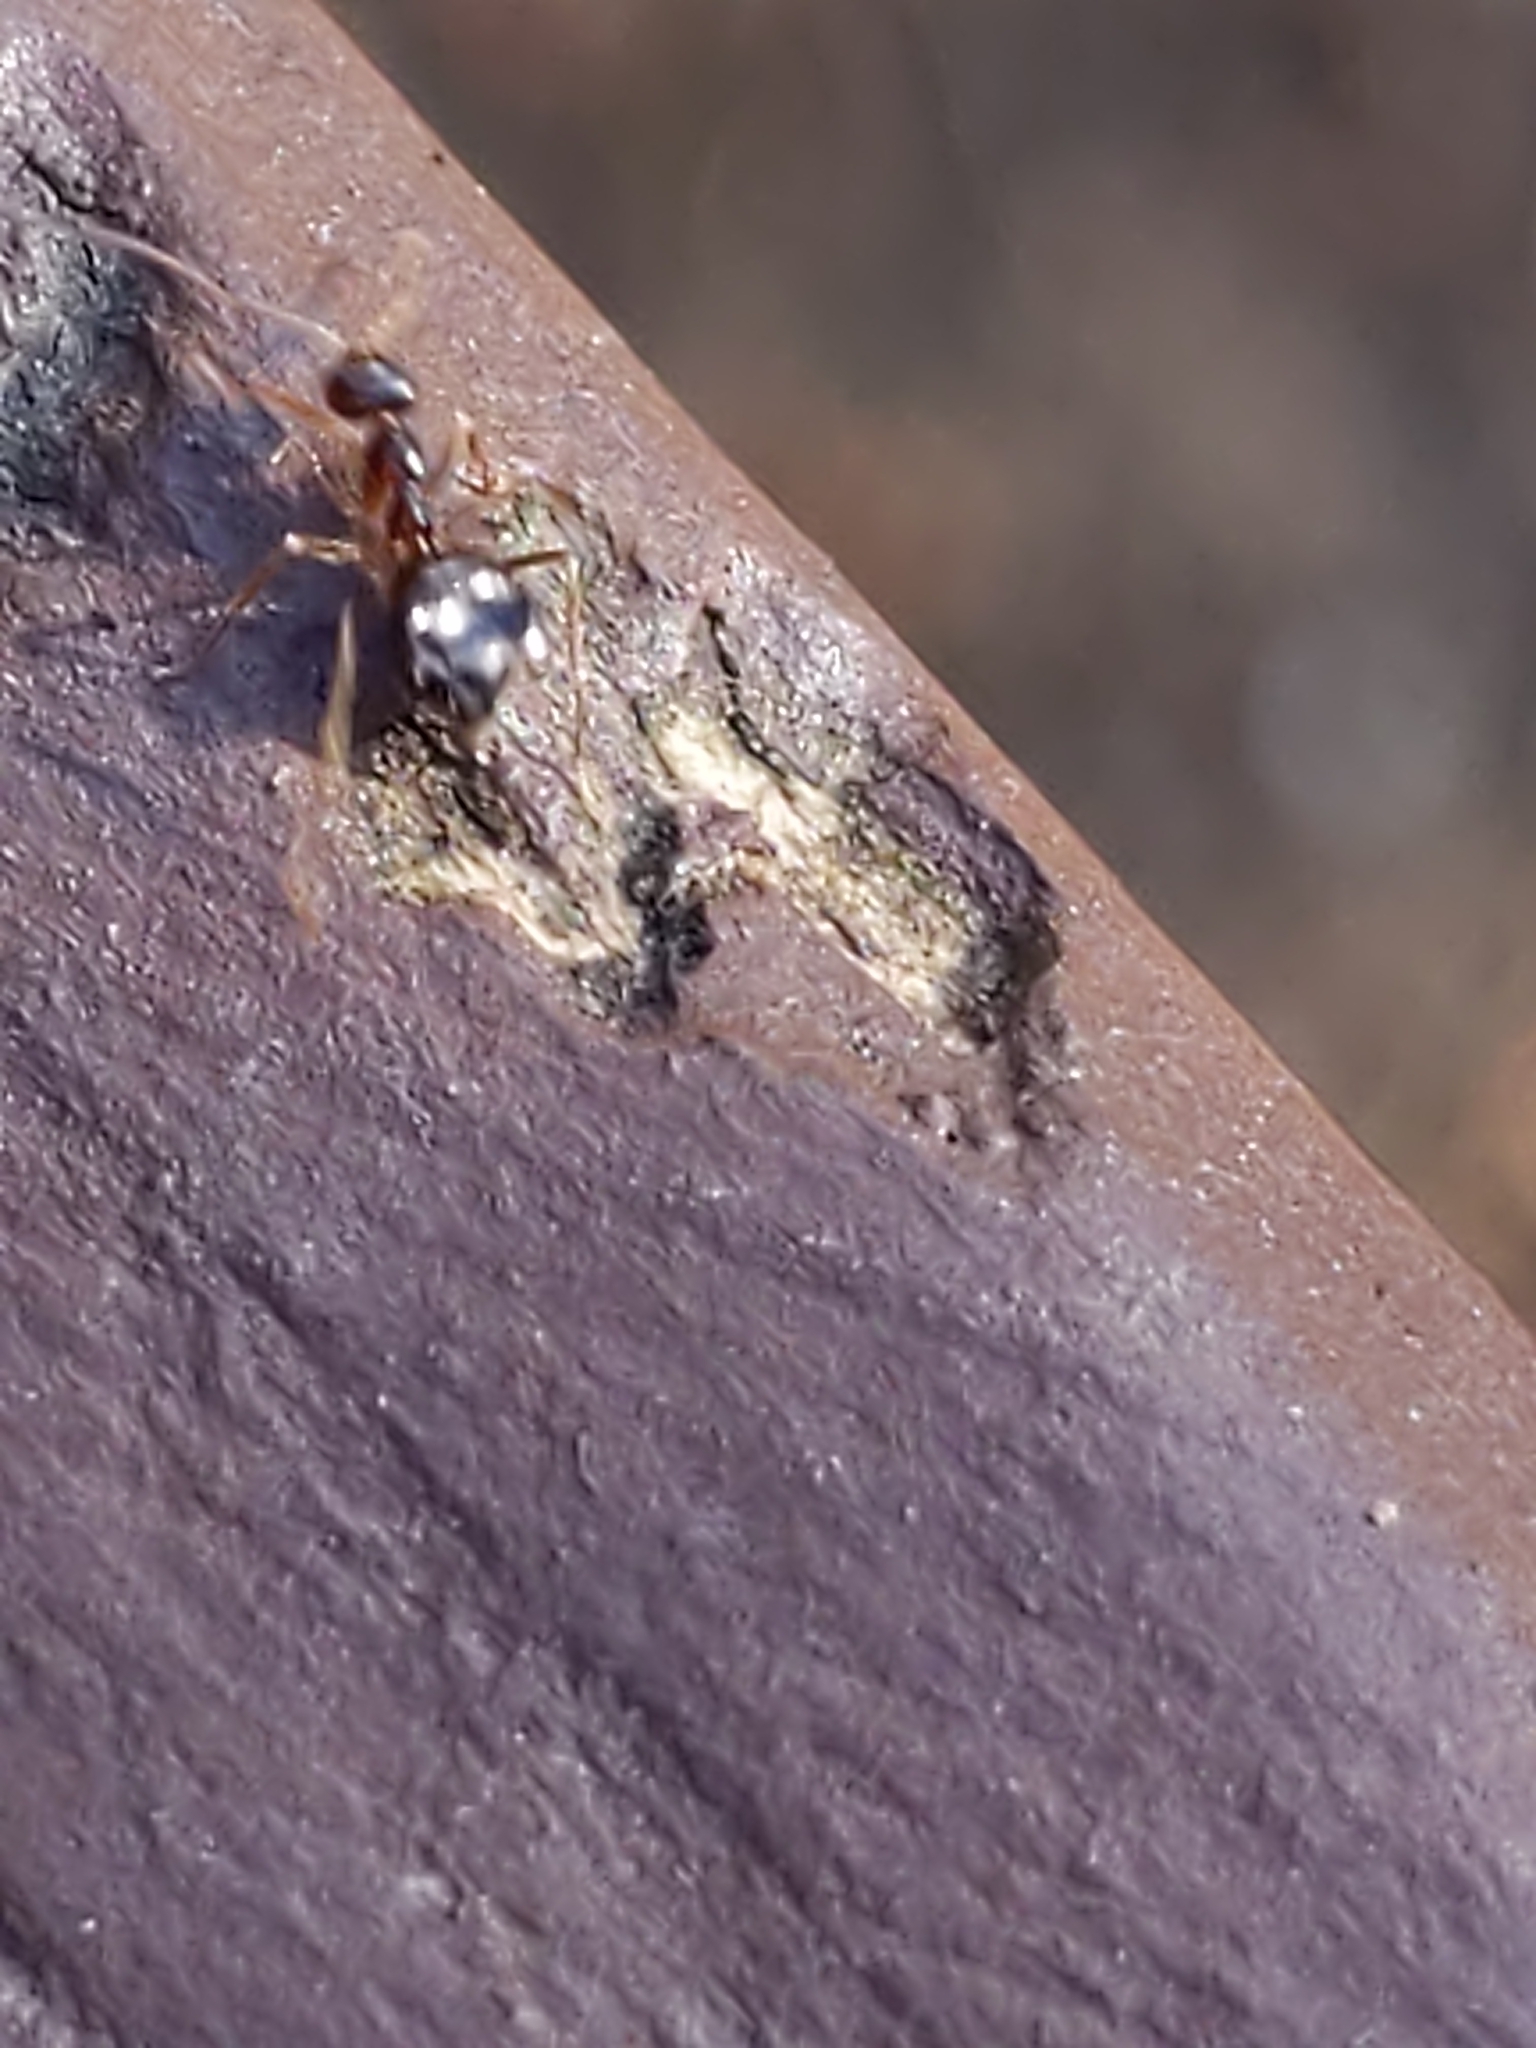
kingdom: Animalia
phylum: Arthropoda
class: Insecta
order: Hymenoptera
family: Formicidae
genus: Prenolepis
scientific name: Prenolepis imparis
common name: Small honey ant
